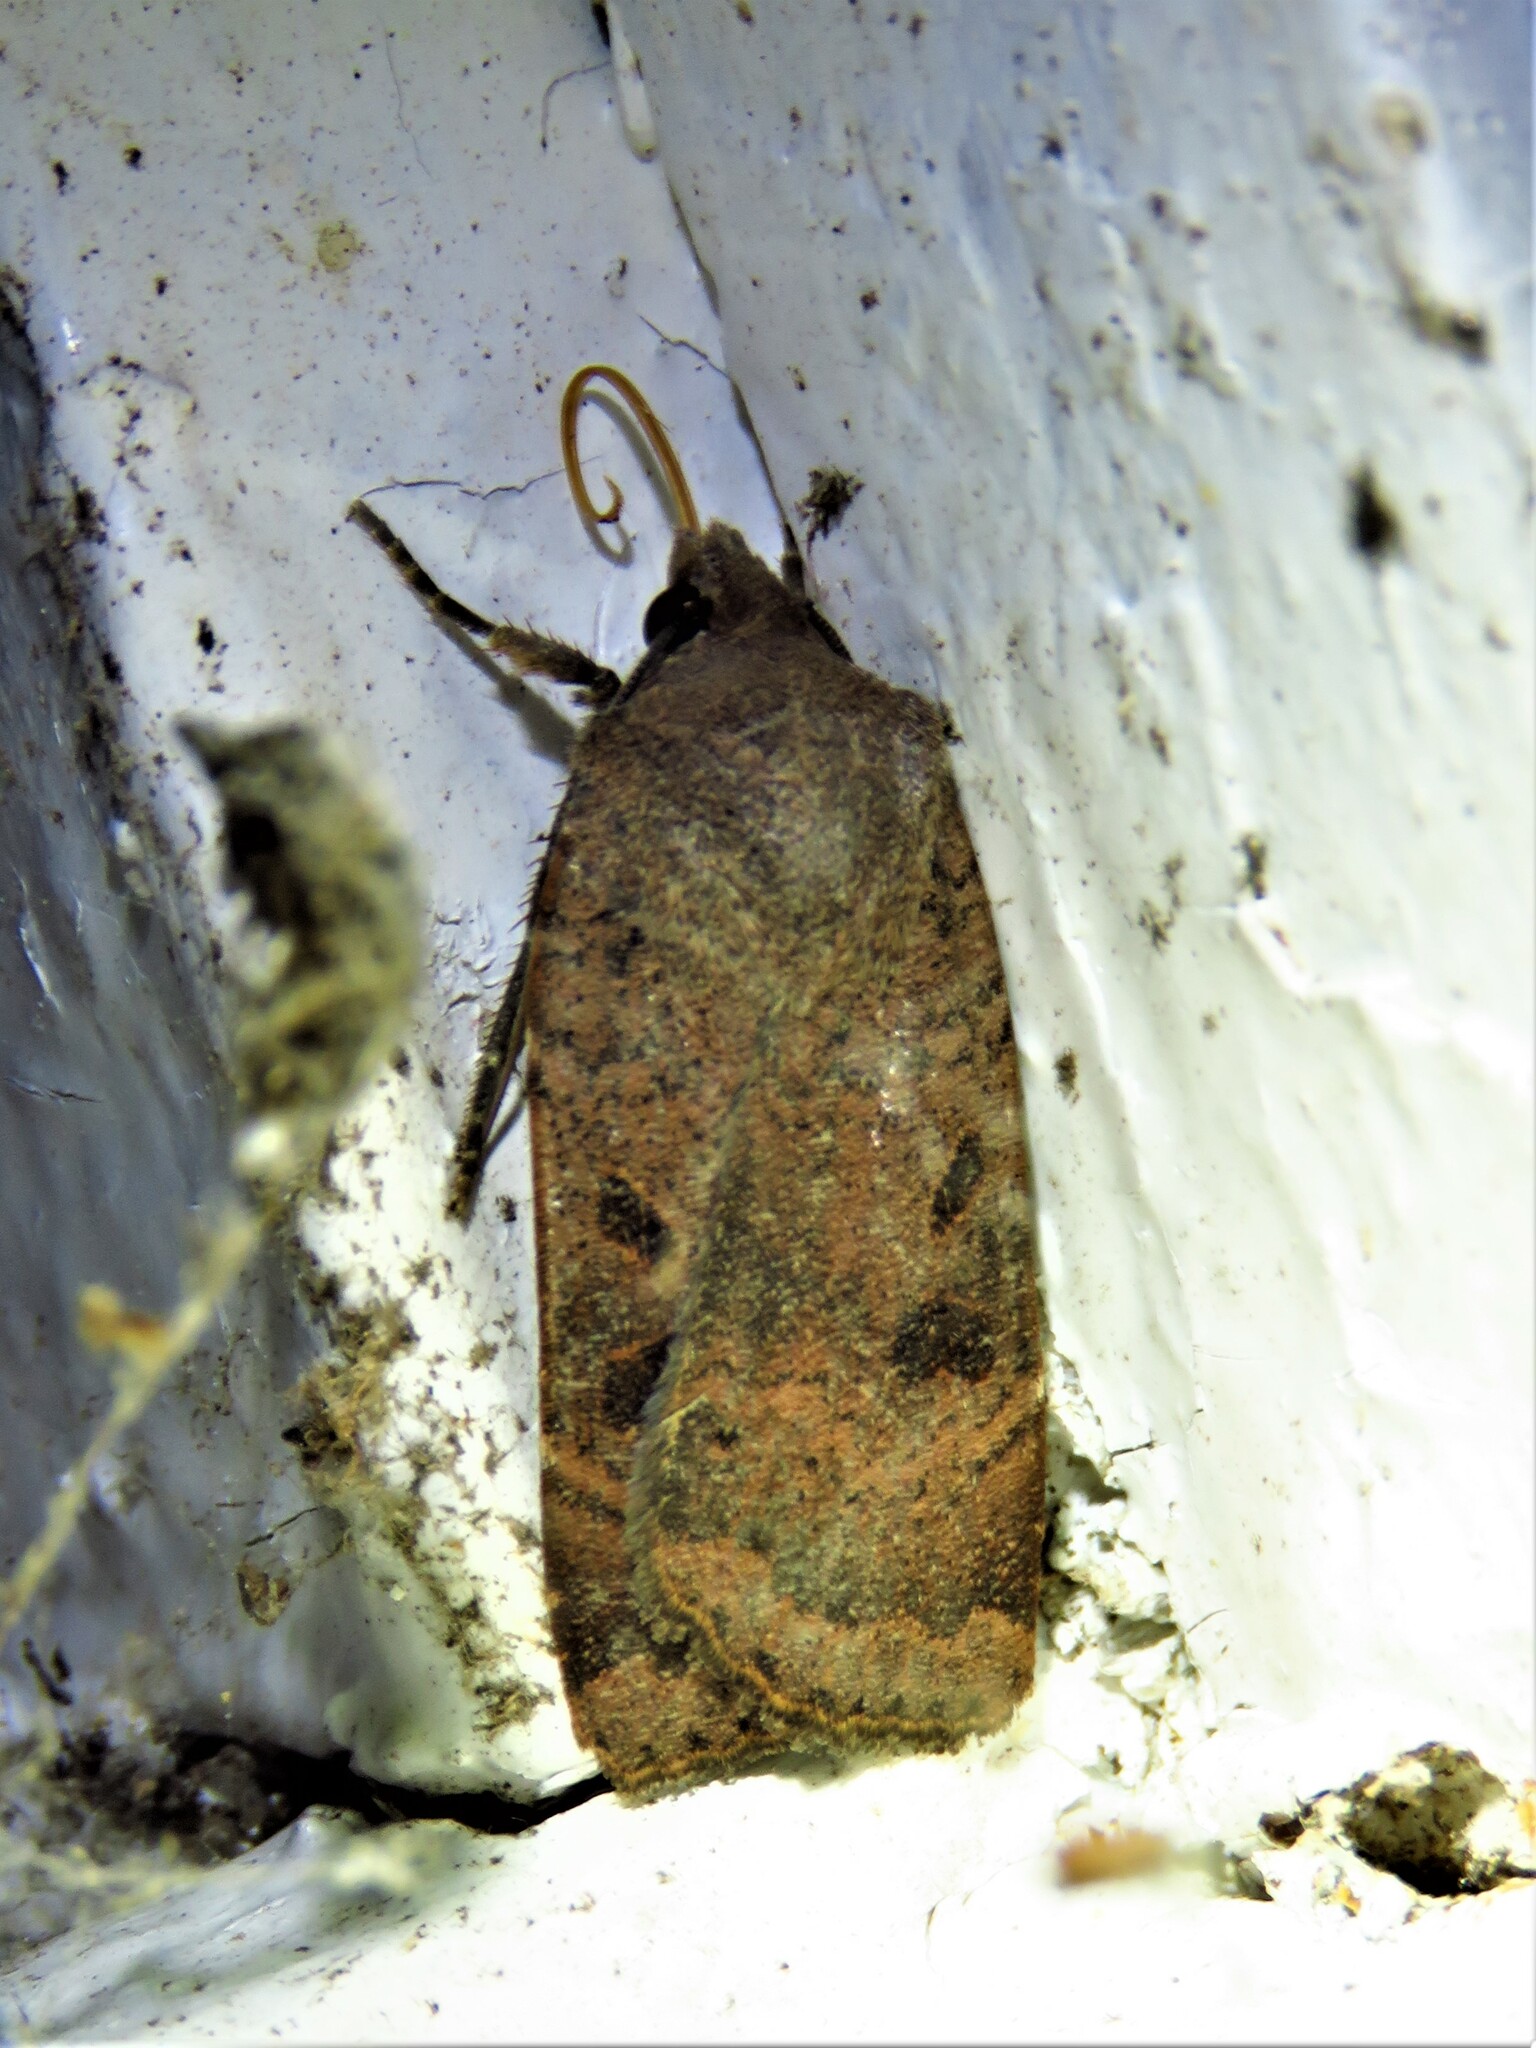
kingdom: Animalia
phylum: Arthropoda
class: Insecta
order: Lepidoptera
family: Noctuidae
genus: Noctua
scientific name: Noctua comes
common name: Lesser yellow underwing
